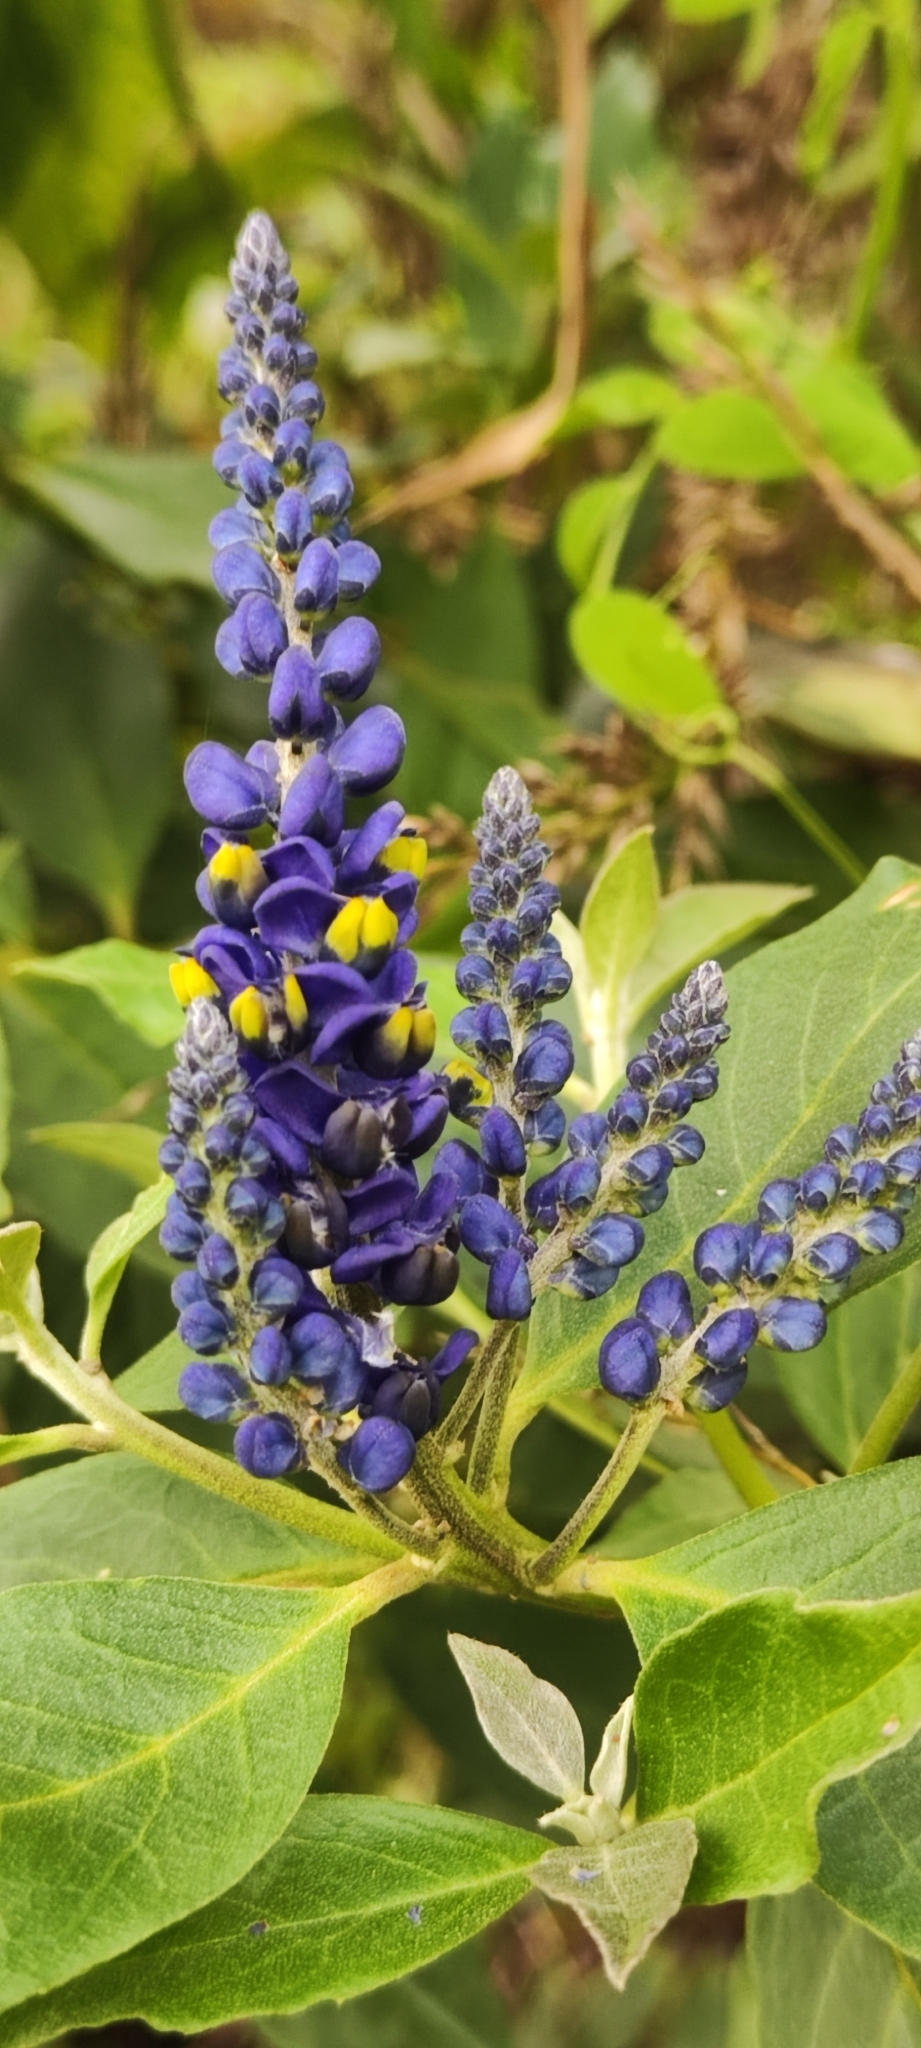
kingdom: Plantae
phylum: Tracheophyta
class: Magnoliopsida
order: Fabales
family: Polygalaceae
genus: Monnina
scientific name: Monnina sanmarcosana
